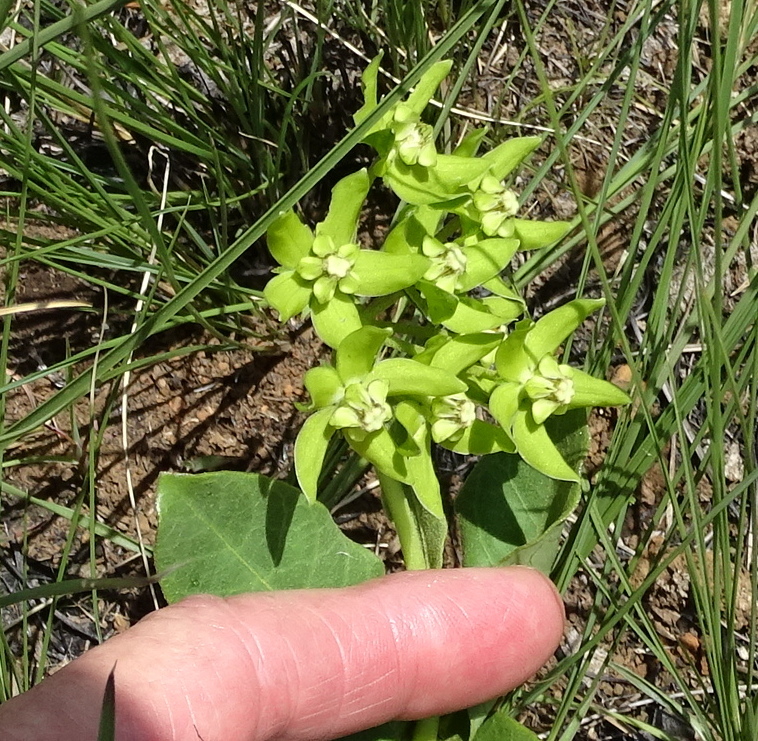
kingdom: Plantae
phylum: Tracheophyta
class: Magnoliopsida
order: Gentianales
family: Apocynaceae
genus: Asclepias
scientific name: Asclepias fulva
